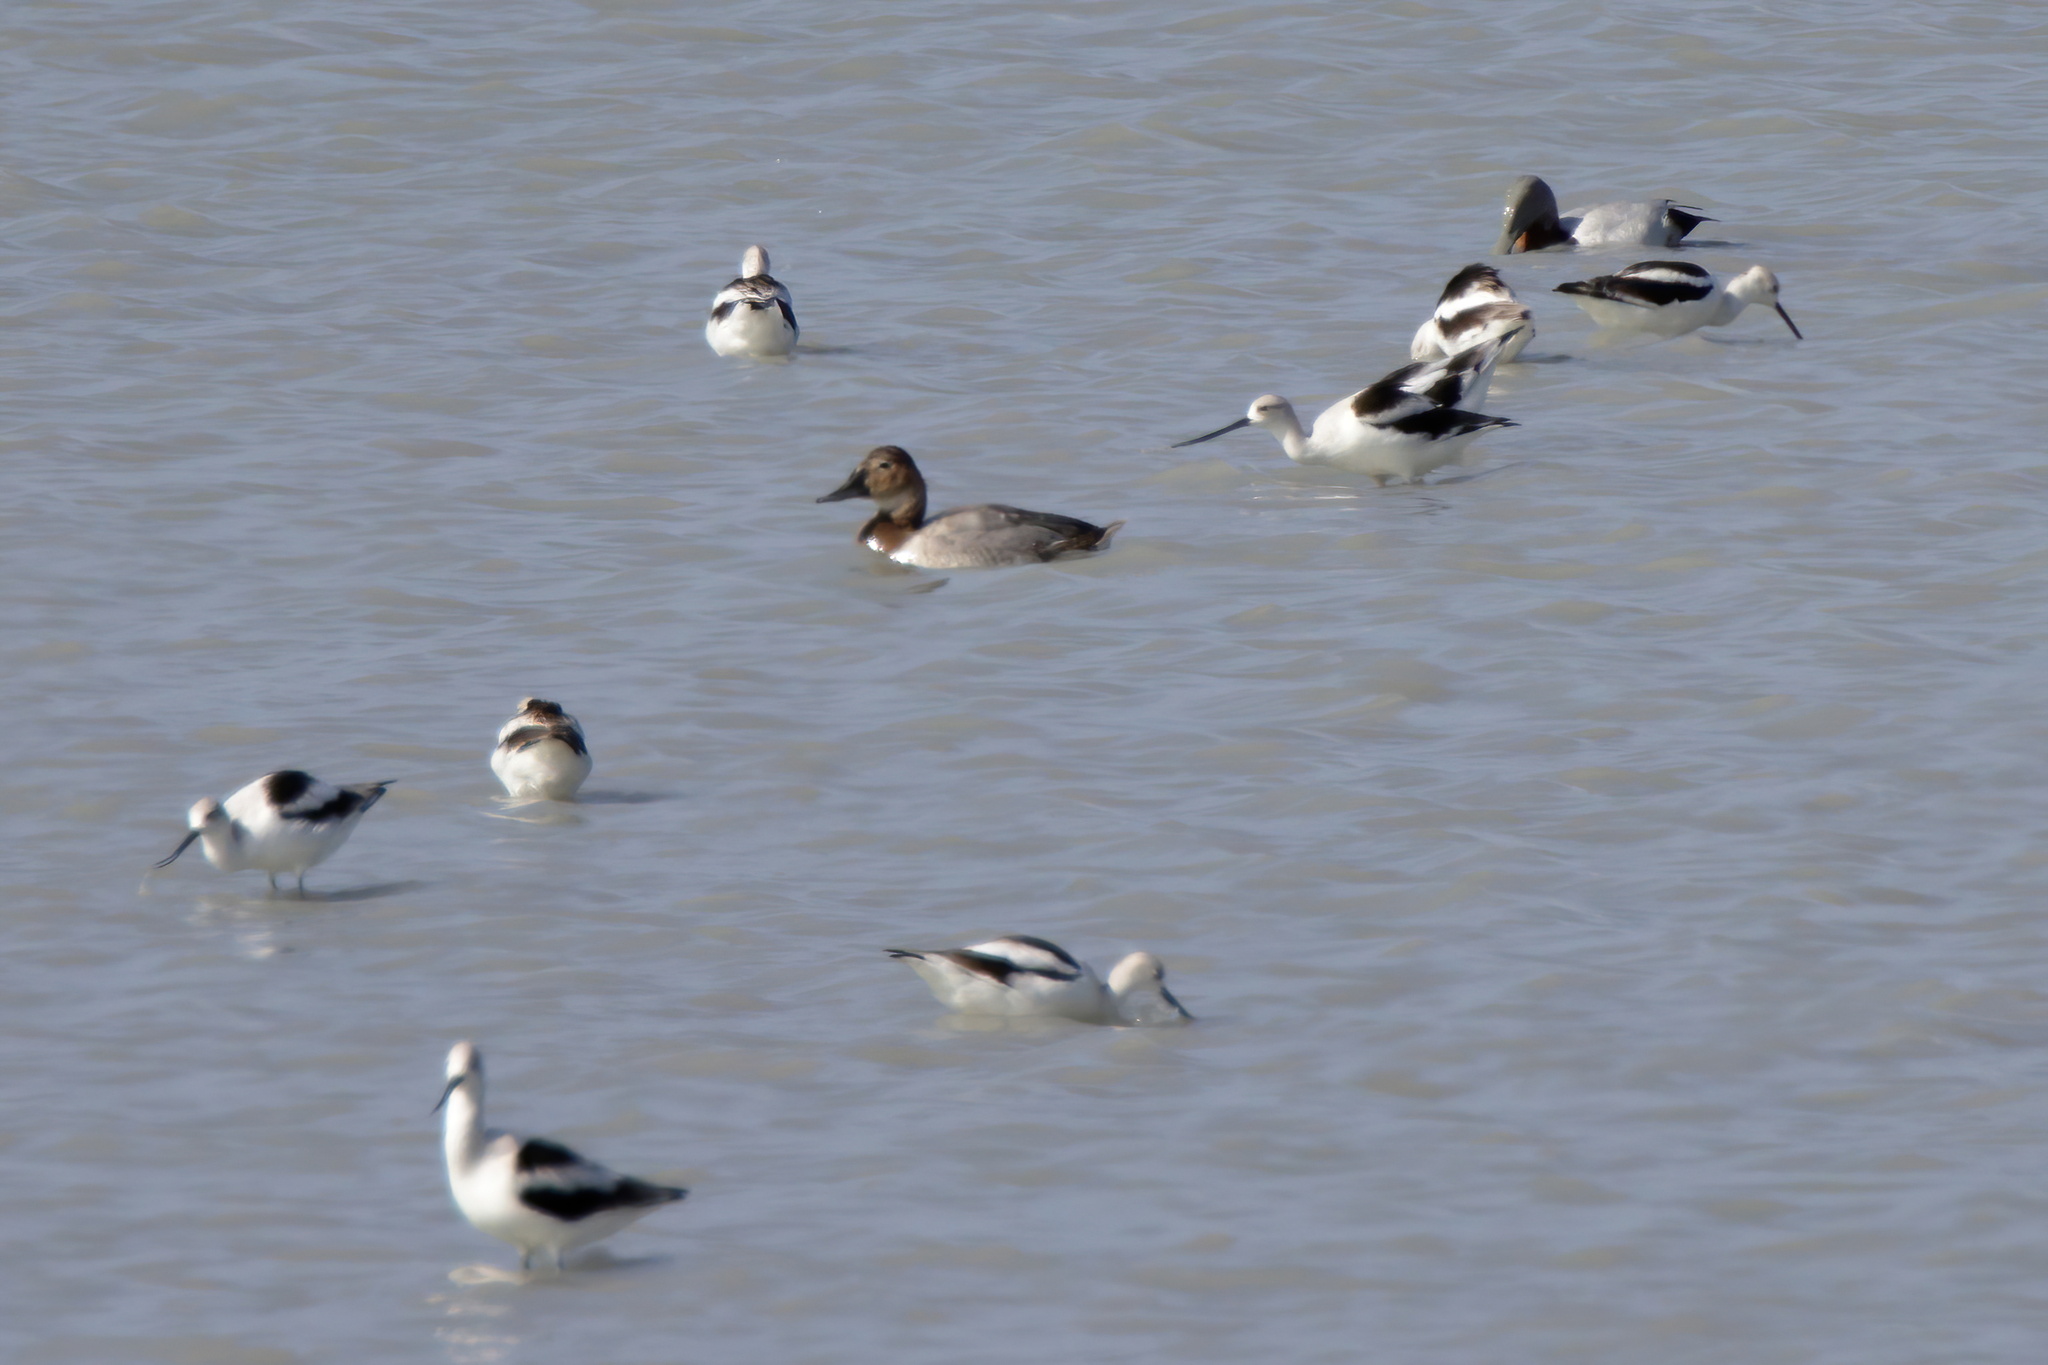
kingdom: Animalia
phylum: Chordata
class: Aves
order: Anseriformes
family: Anatidae
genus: Aythya
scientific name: Aythya valisineria
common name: Canvasback
